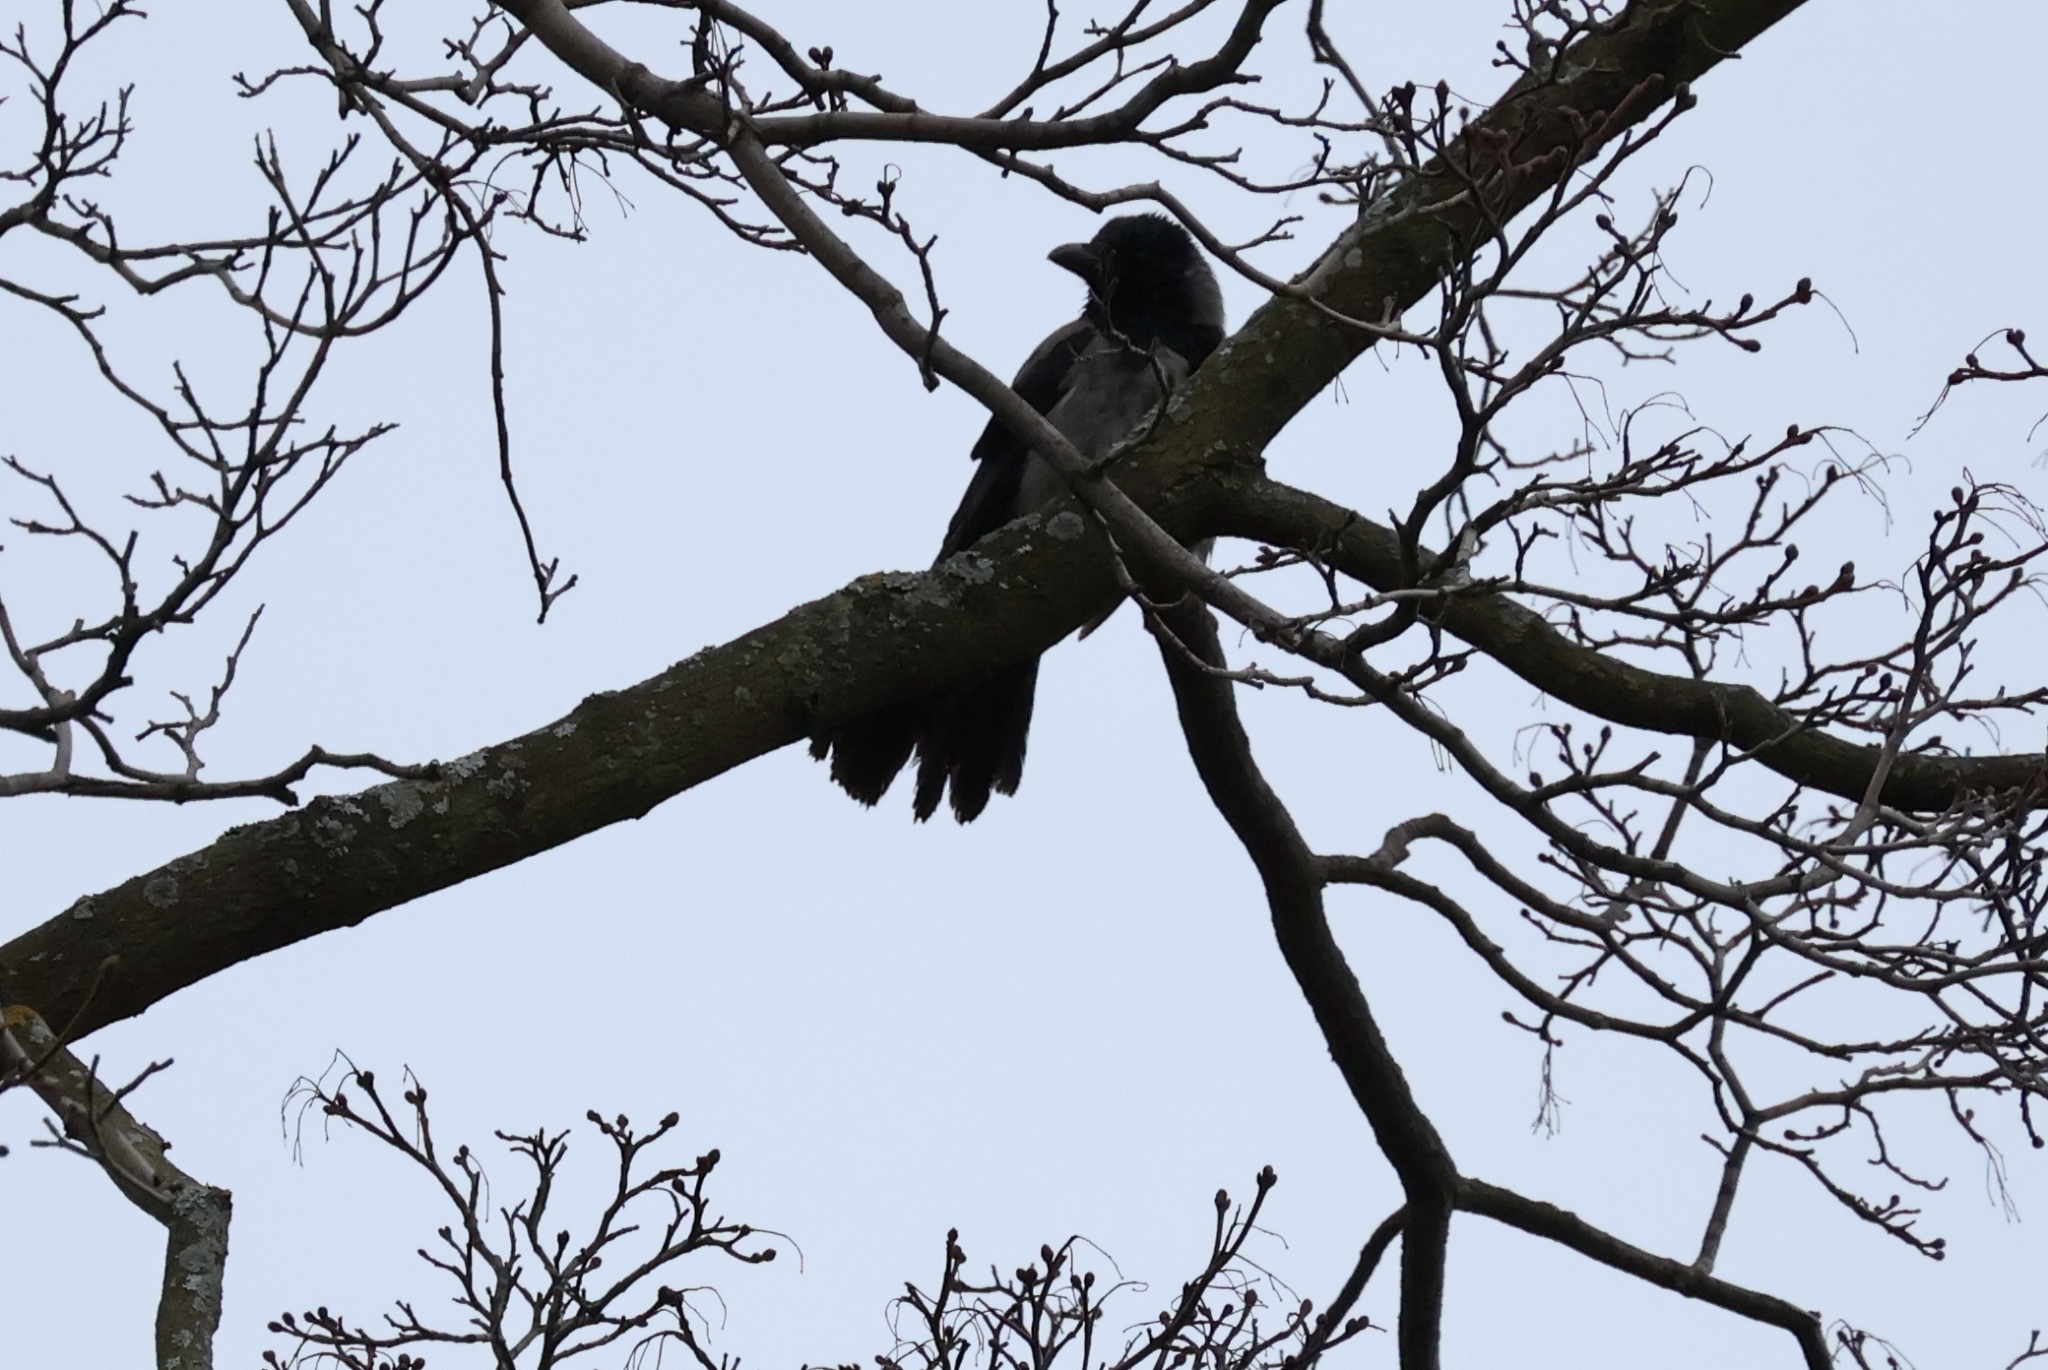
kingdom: Animalia
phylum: Chordata
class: Aves
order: Passeriformes
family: Corvidae
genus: Corvus
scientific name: Corvus cornix
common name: Hooded crow
